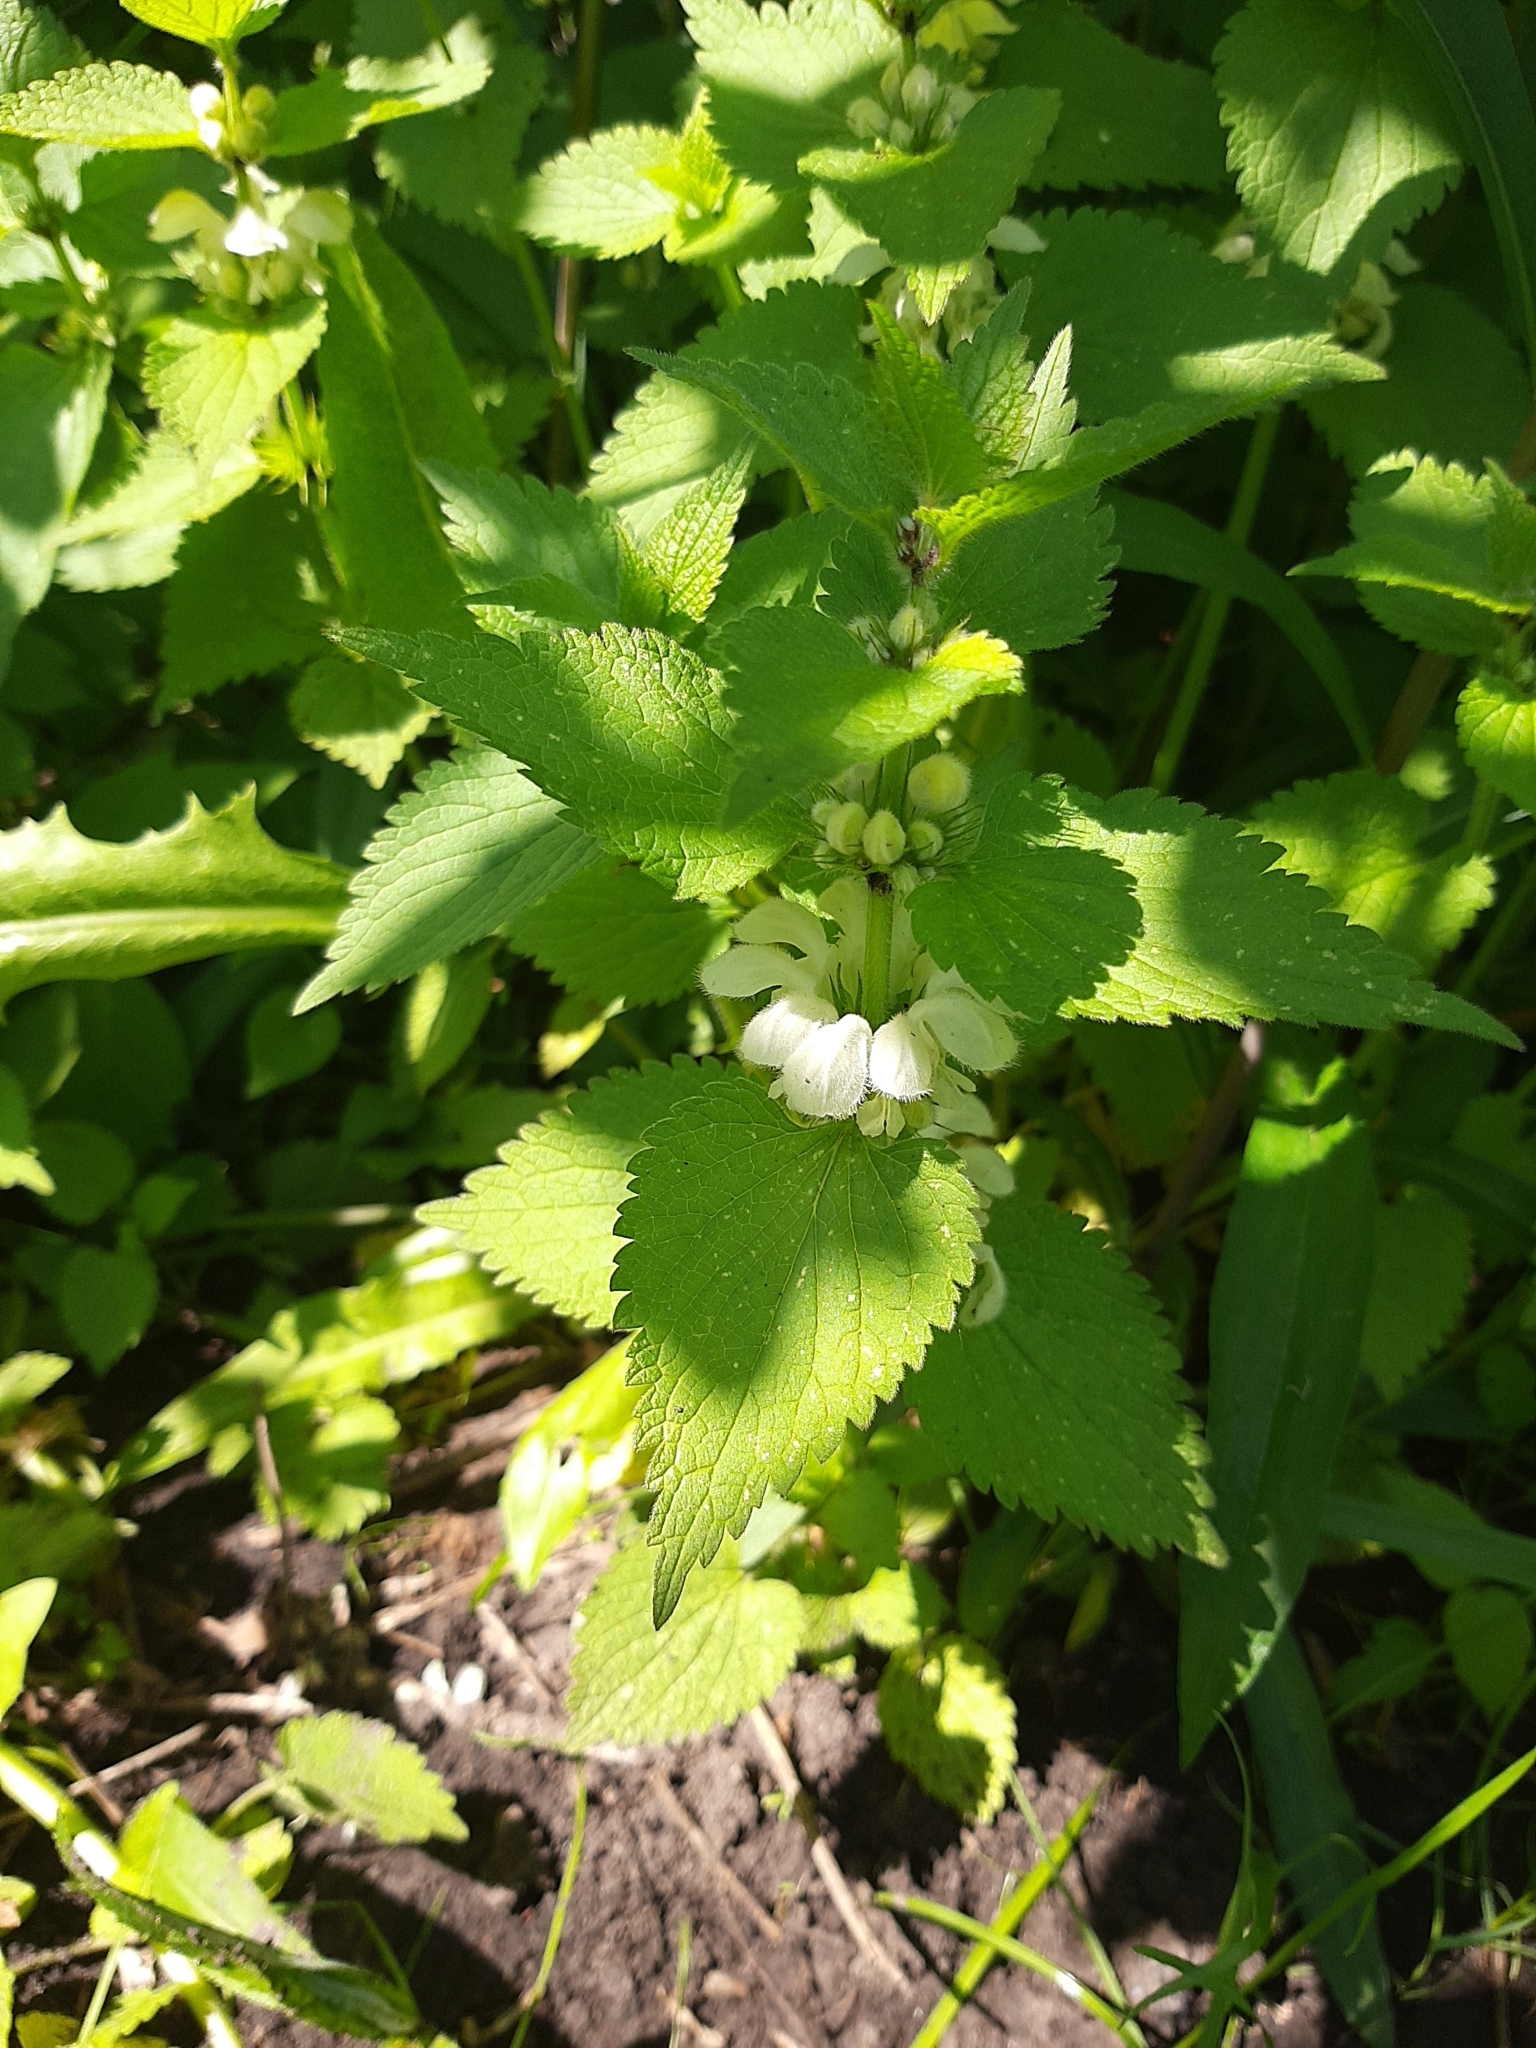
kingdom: Plantae
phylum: Tracheophyta
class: Magnoliopsida
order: Lamiales
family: Lamiaceae
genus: Lamium
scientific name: Lamium album
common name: White dead-nettle
